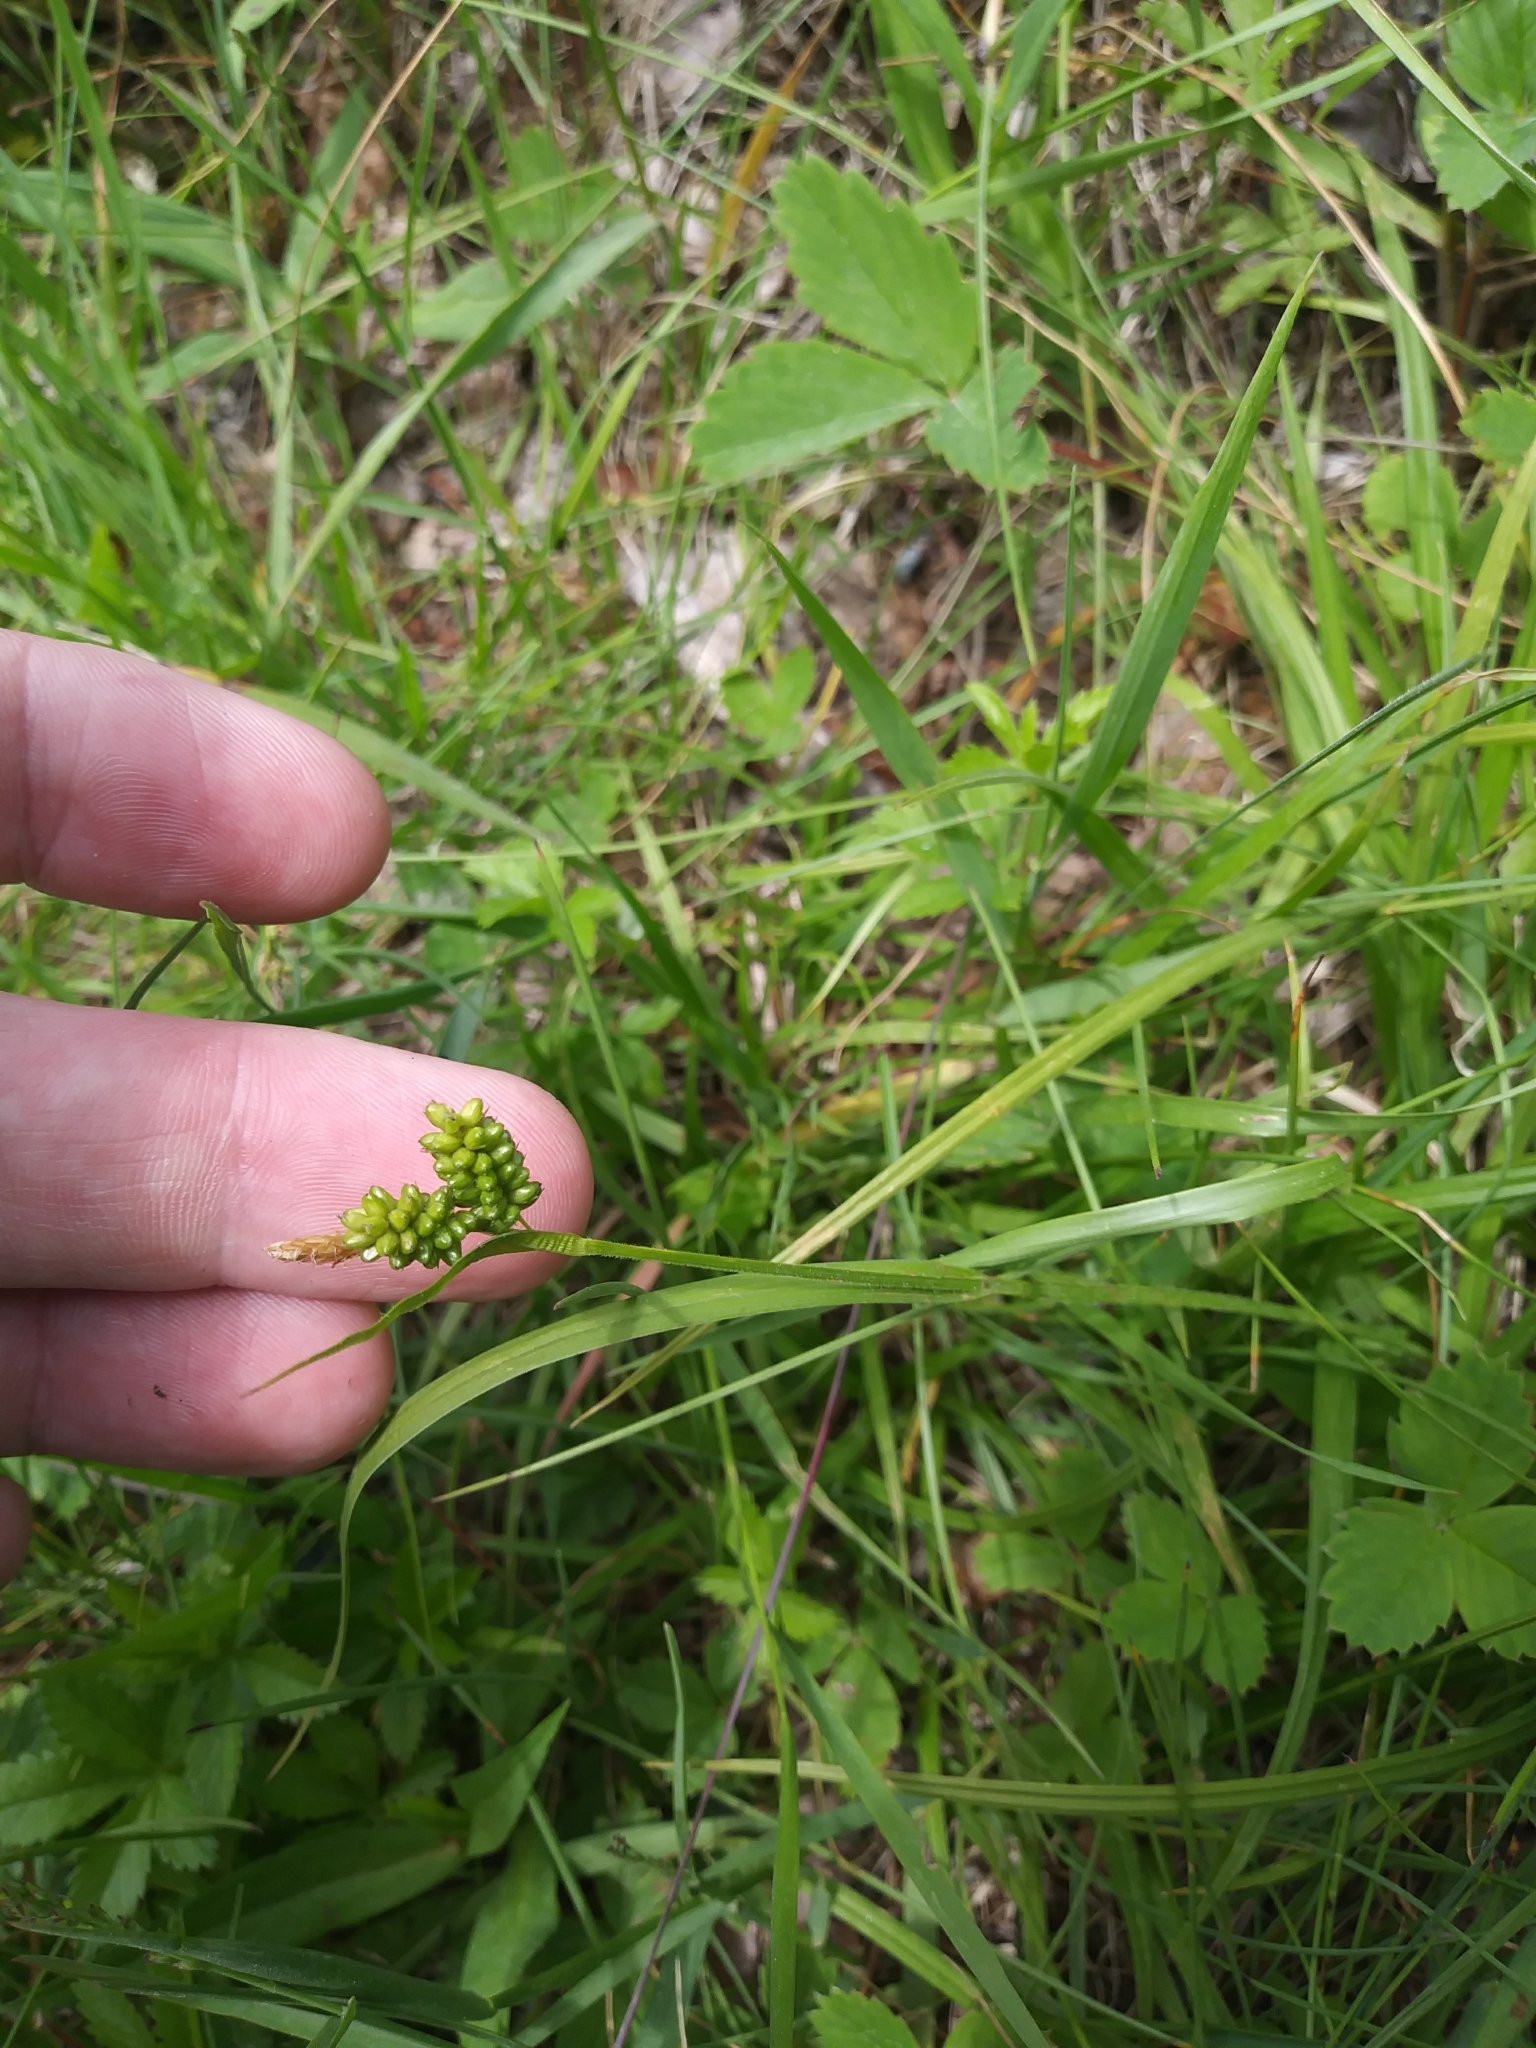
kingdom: Plantae
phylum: Tracheophyta
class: Liliopsida
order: Poales
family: Cyperaceae
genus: Carex
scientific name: Carex pallescens
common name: Pale sedge
